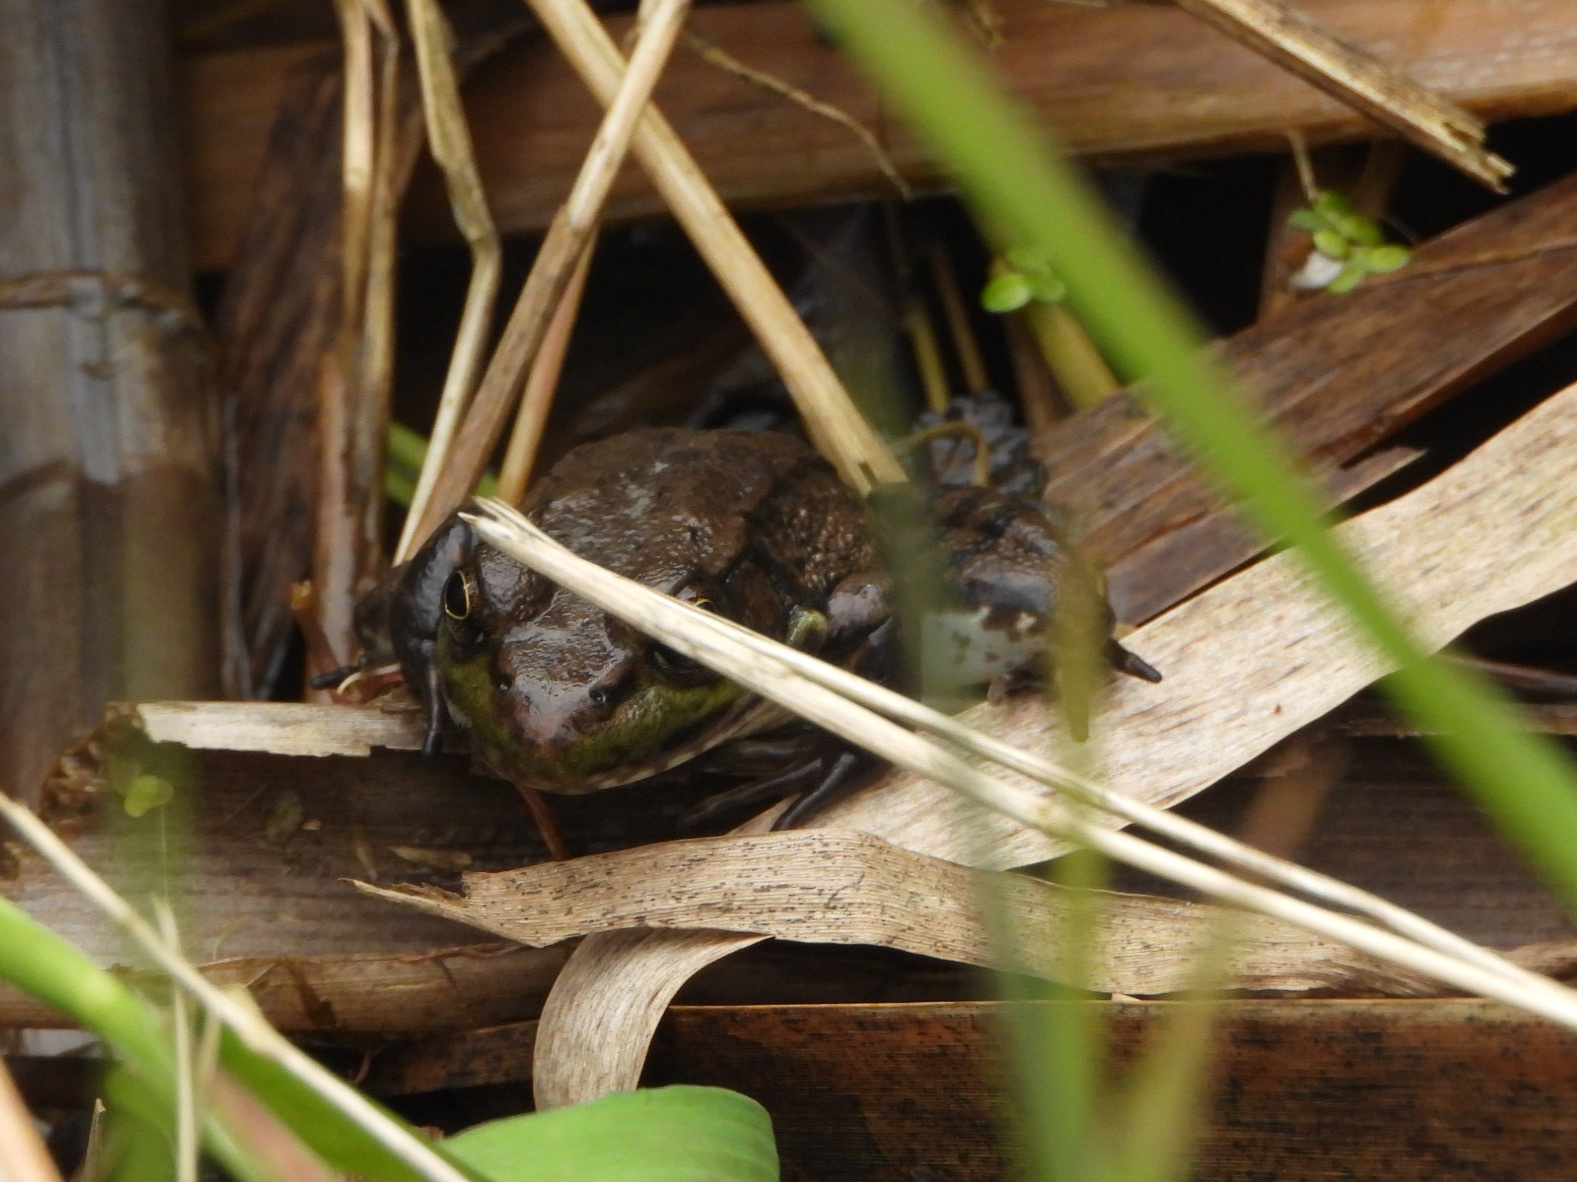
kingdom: Animalia
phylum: Chordata
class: Amphibia
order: Anura
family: Ranidae
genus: Lithobates
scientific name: Lithobates clamitans
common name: Green frog
